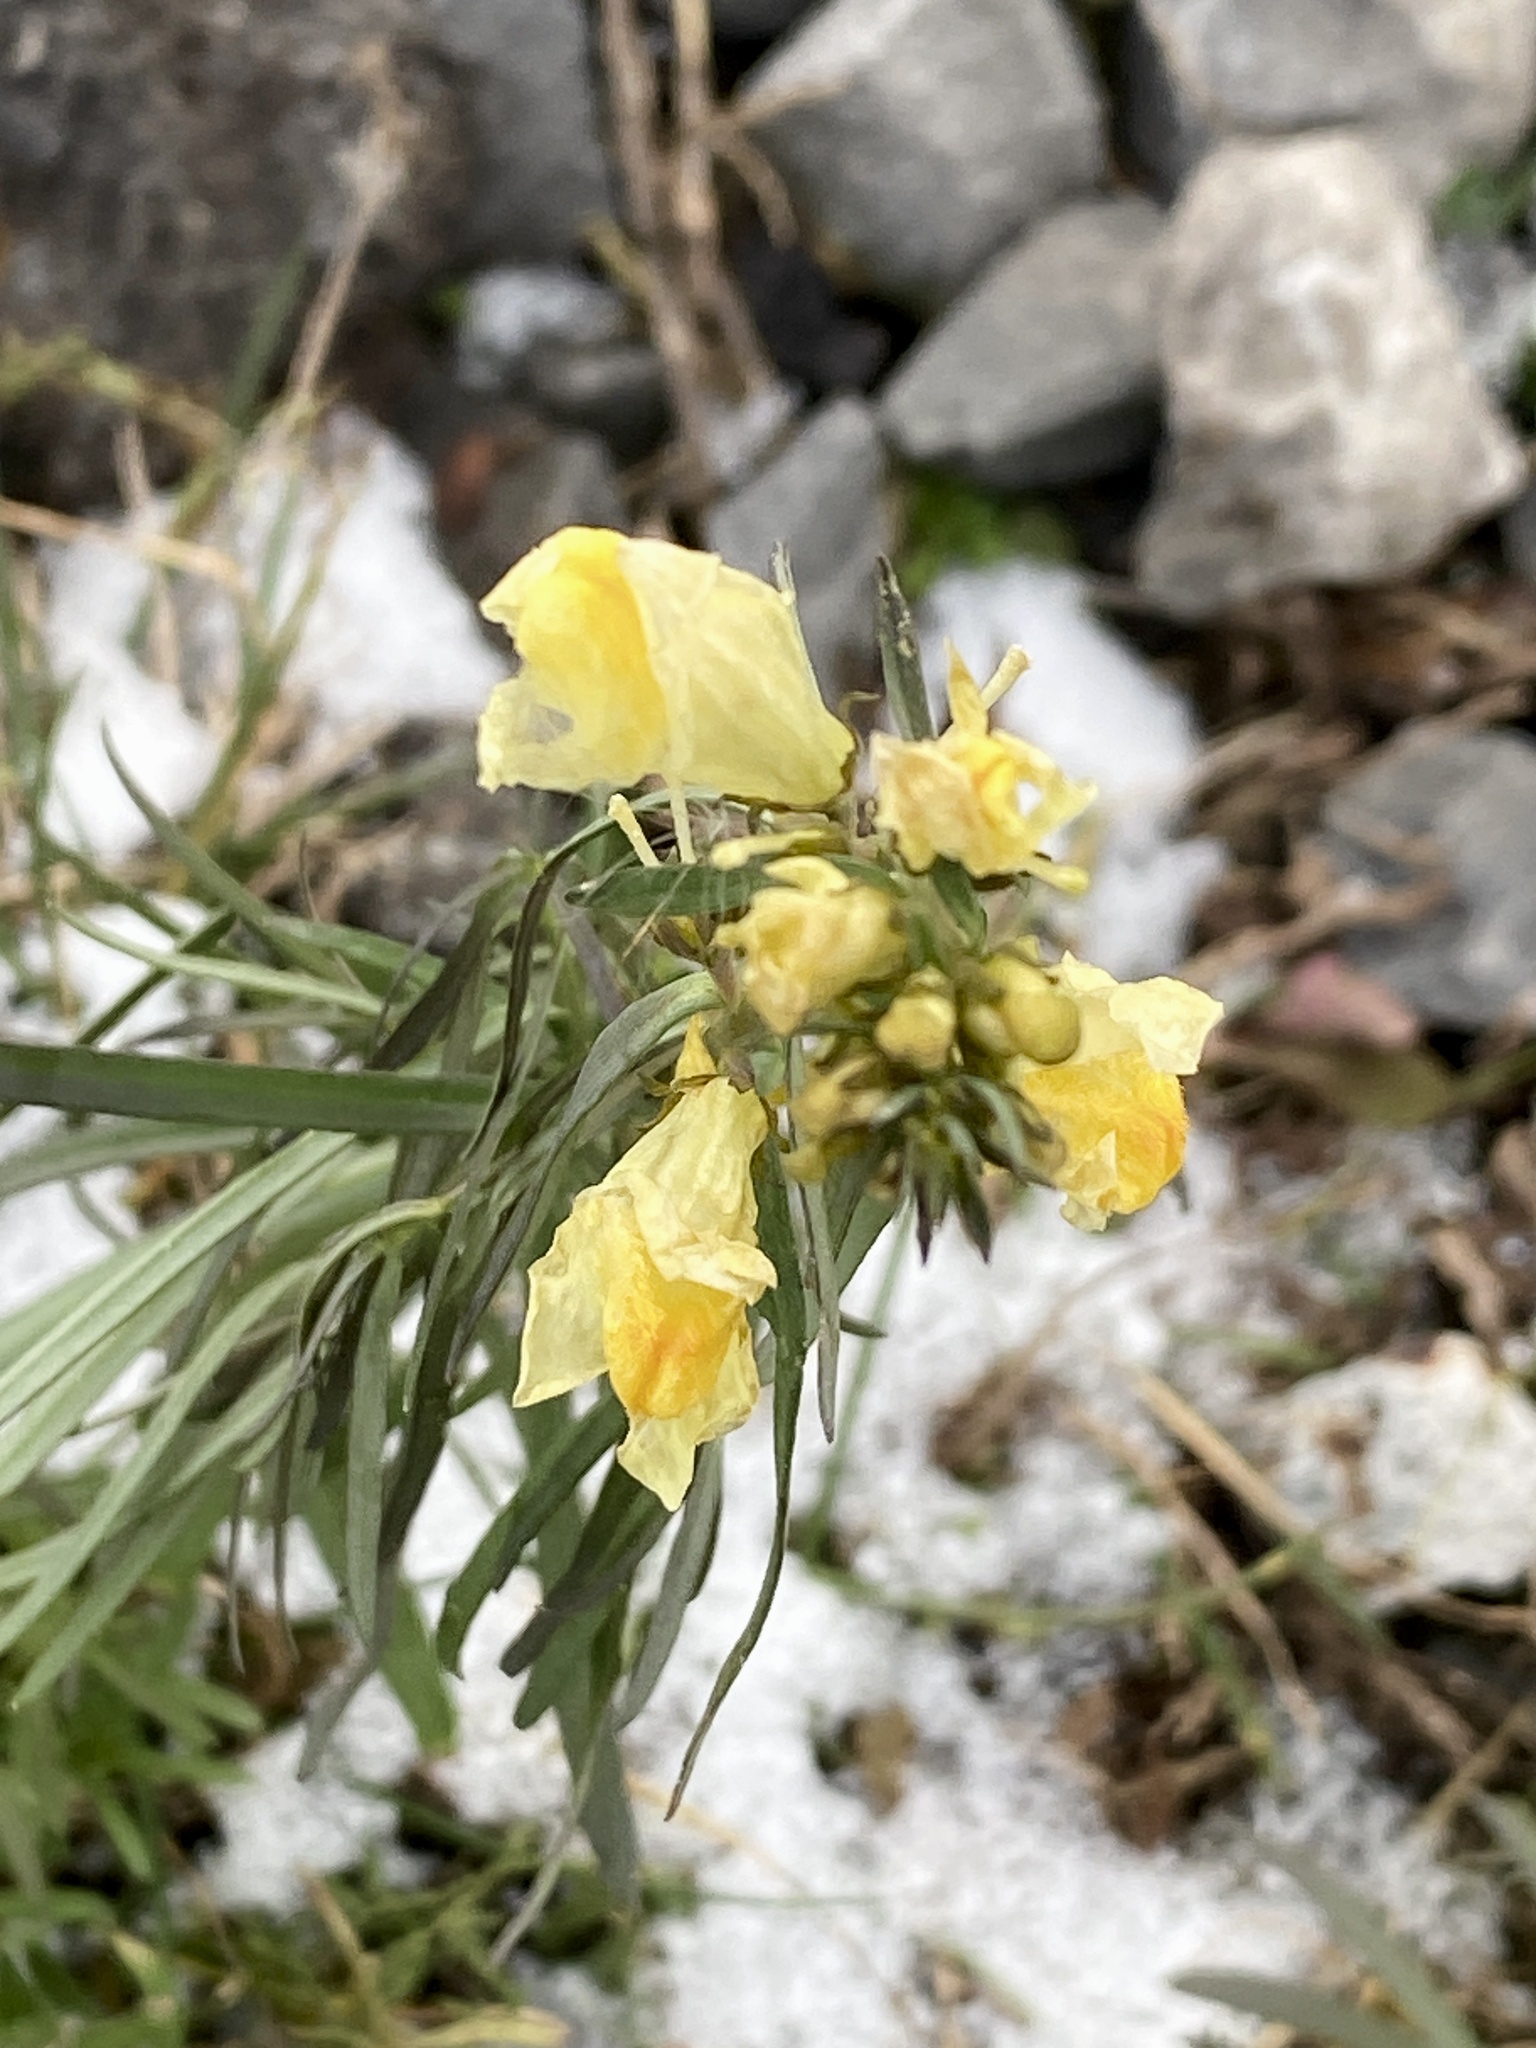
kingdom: Plantae
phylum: Tracheophyta
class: Magnoliopsida
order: Lamiales
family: Plantaginaceae
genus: Linaria
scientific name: Linaria vulgaris
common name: Butter and eggs
